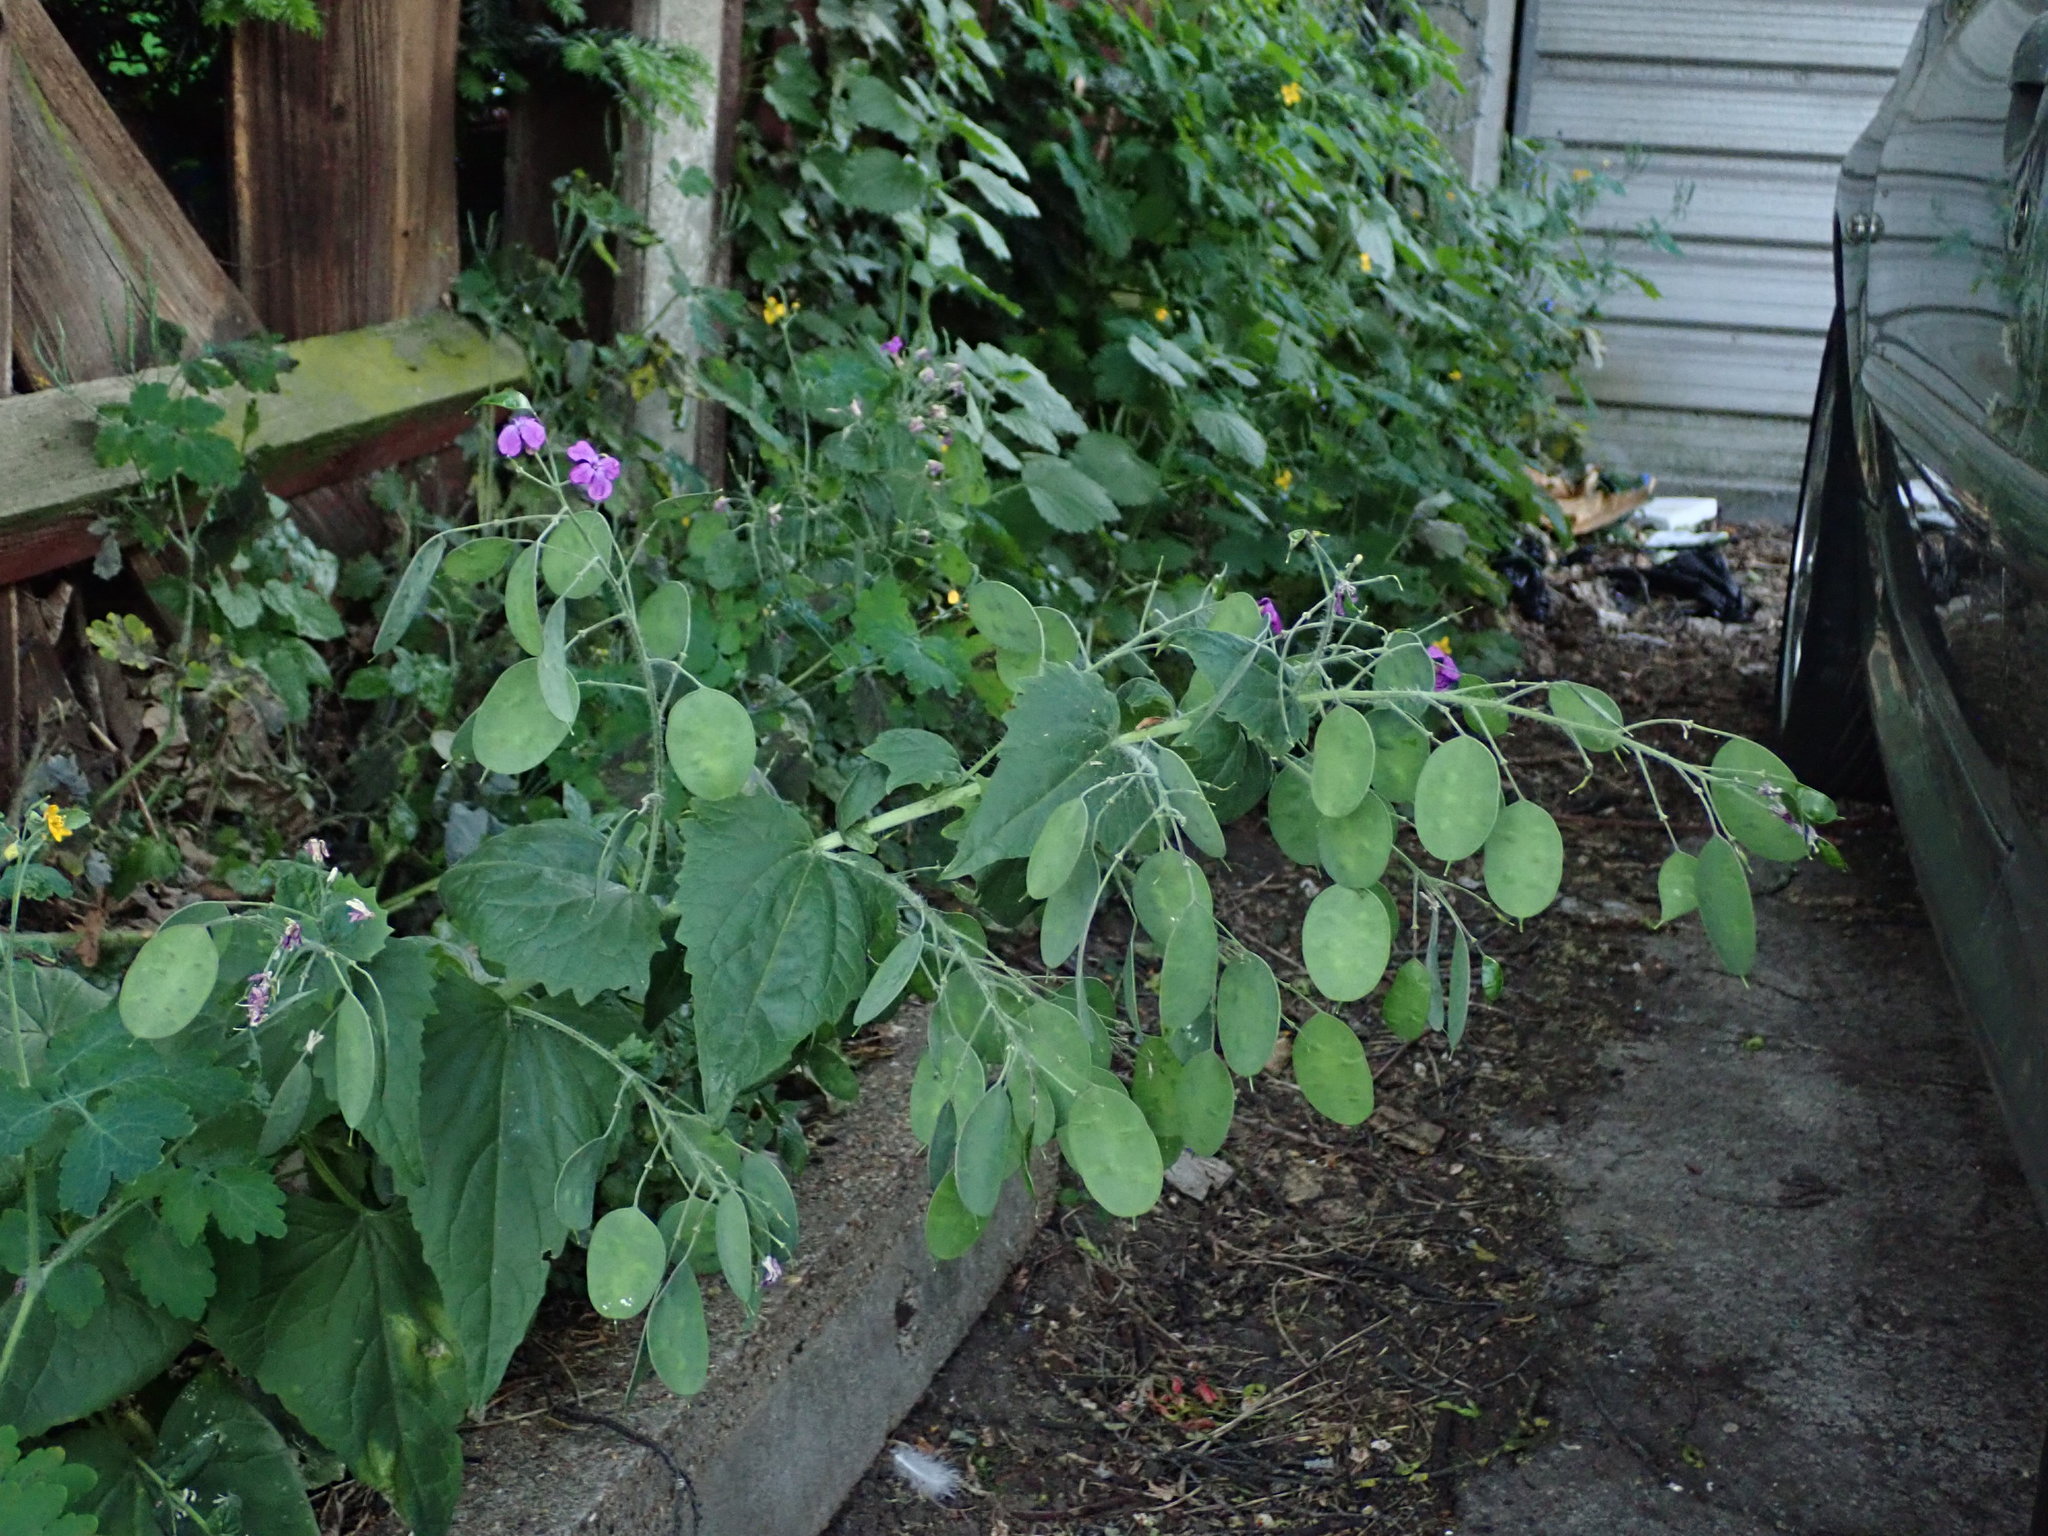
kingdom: Plantae
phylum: Tracheophyta
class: Magnoliopsida
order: Brassicales
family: Brassicaceae
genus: Lunaria
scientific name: Lunaria annua
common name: Honesty
